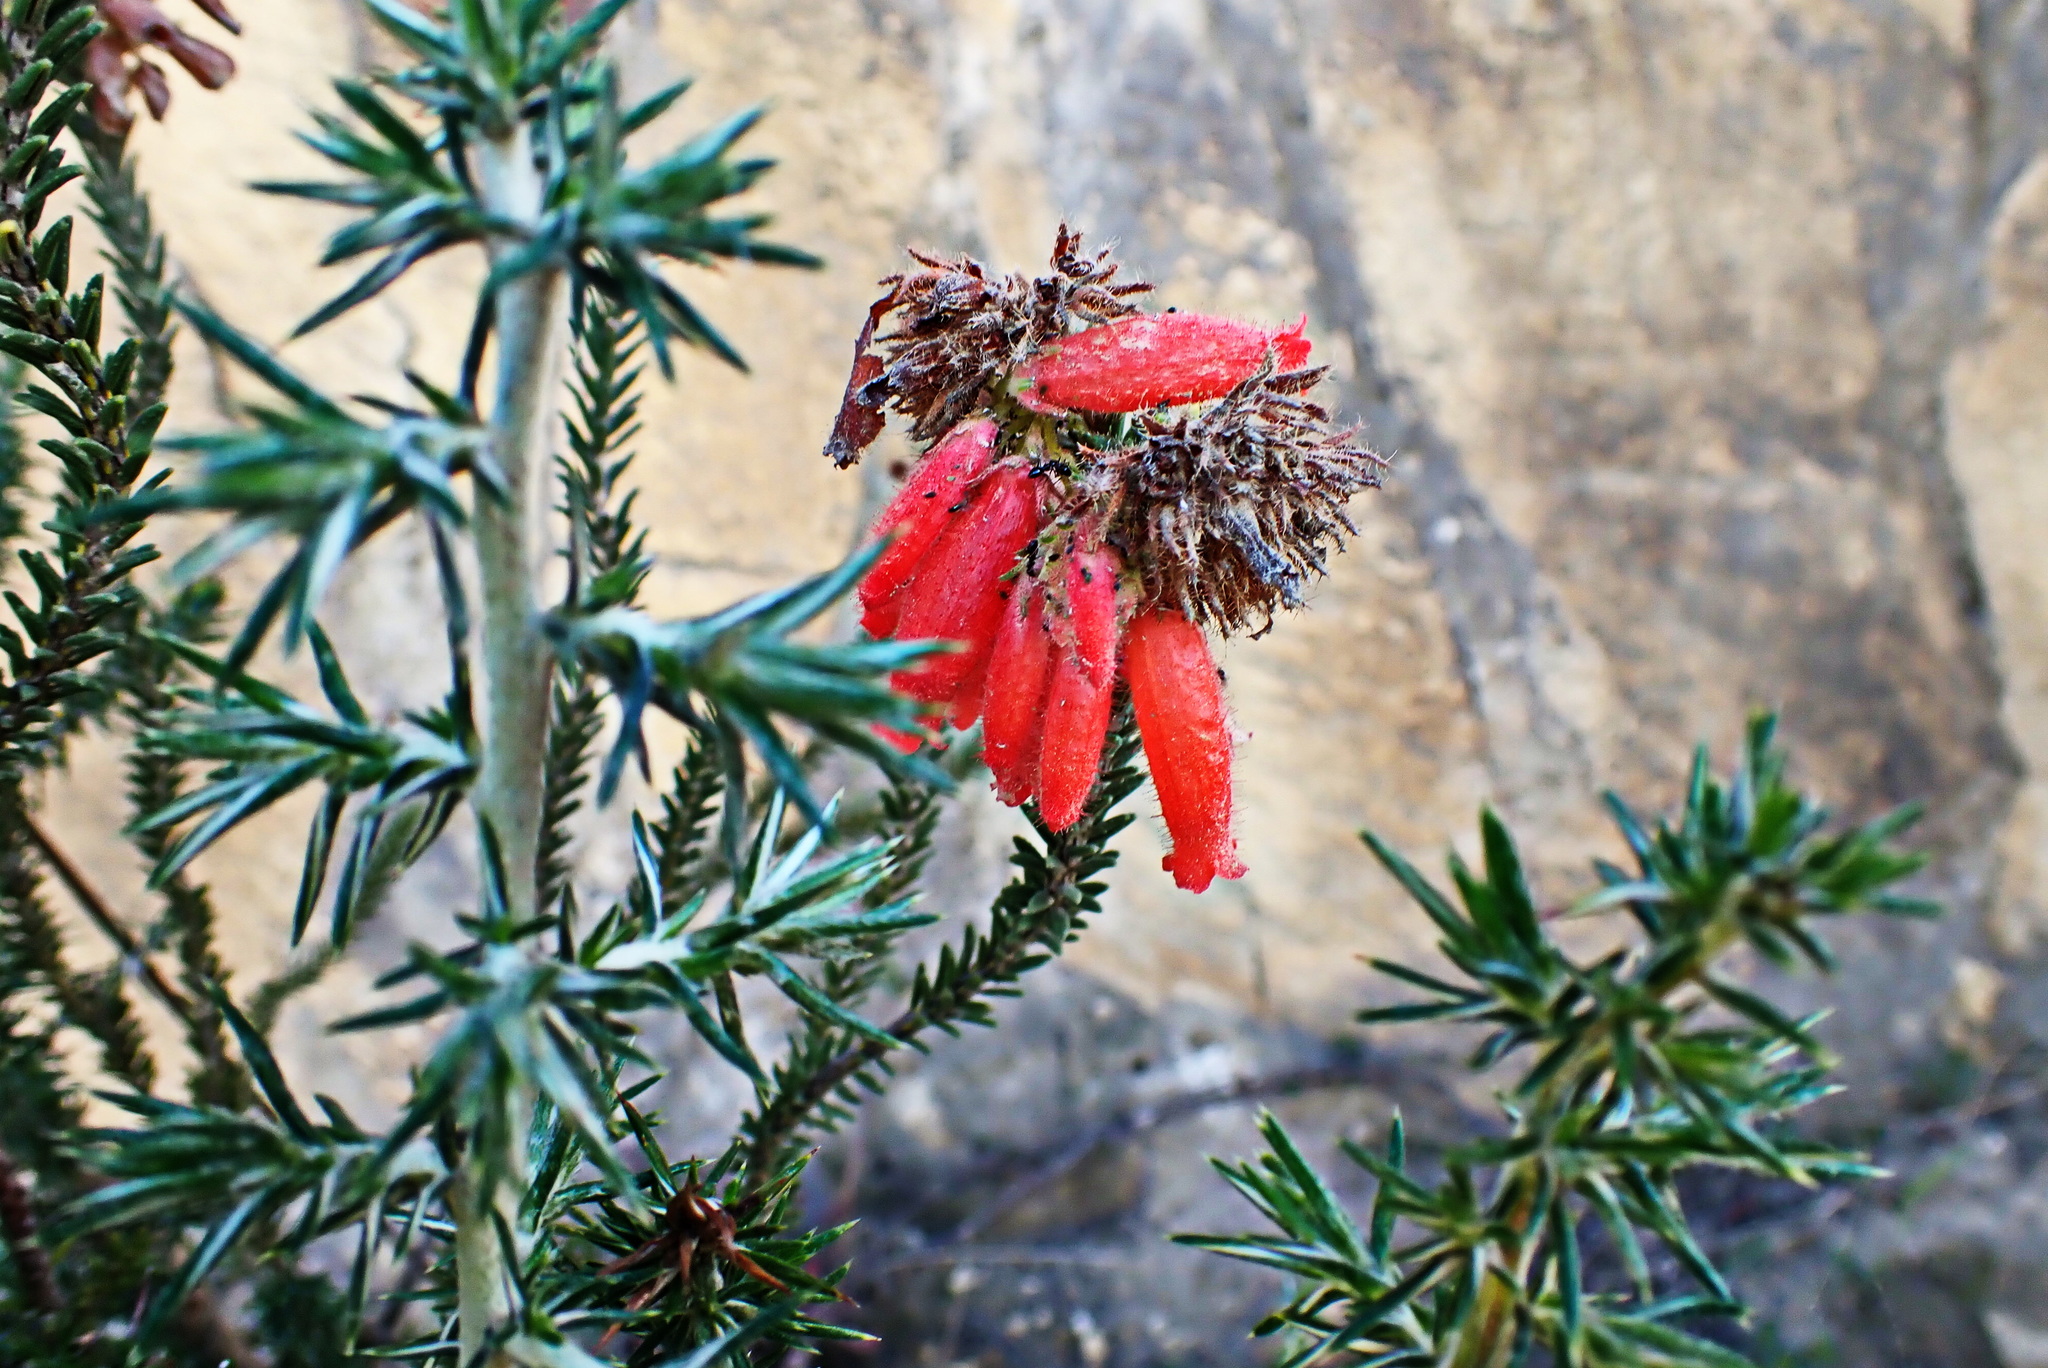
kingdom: Plantae
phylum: Tracheophyta
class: Magnoliopsida
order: Ericales
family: Ericaceae
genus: Erica
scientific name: Erica cerinthoides
